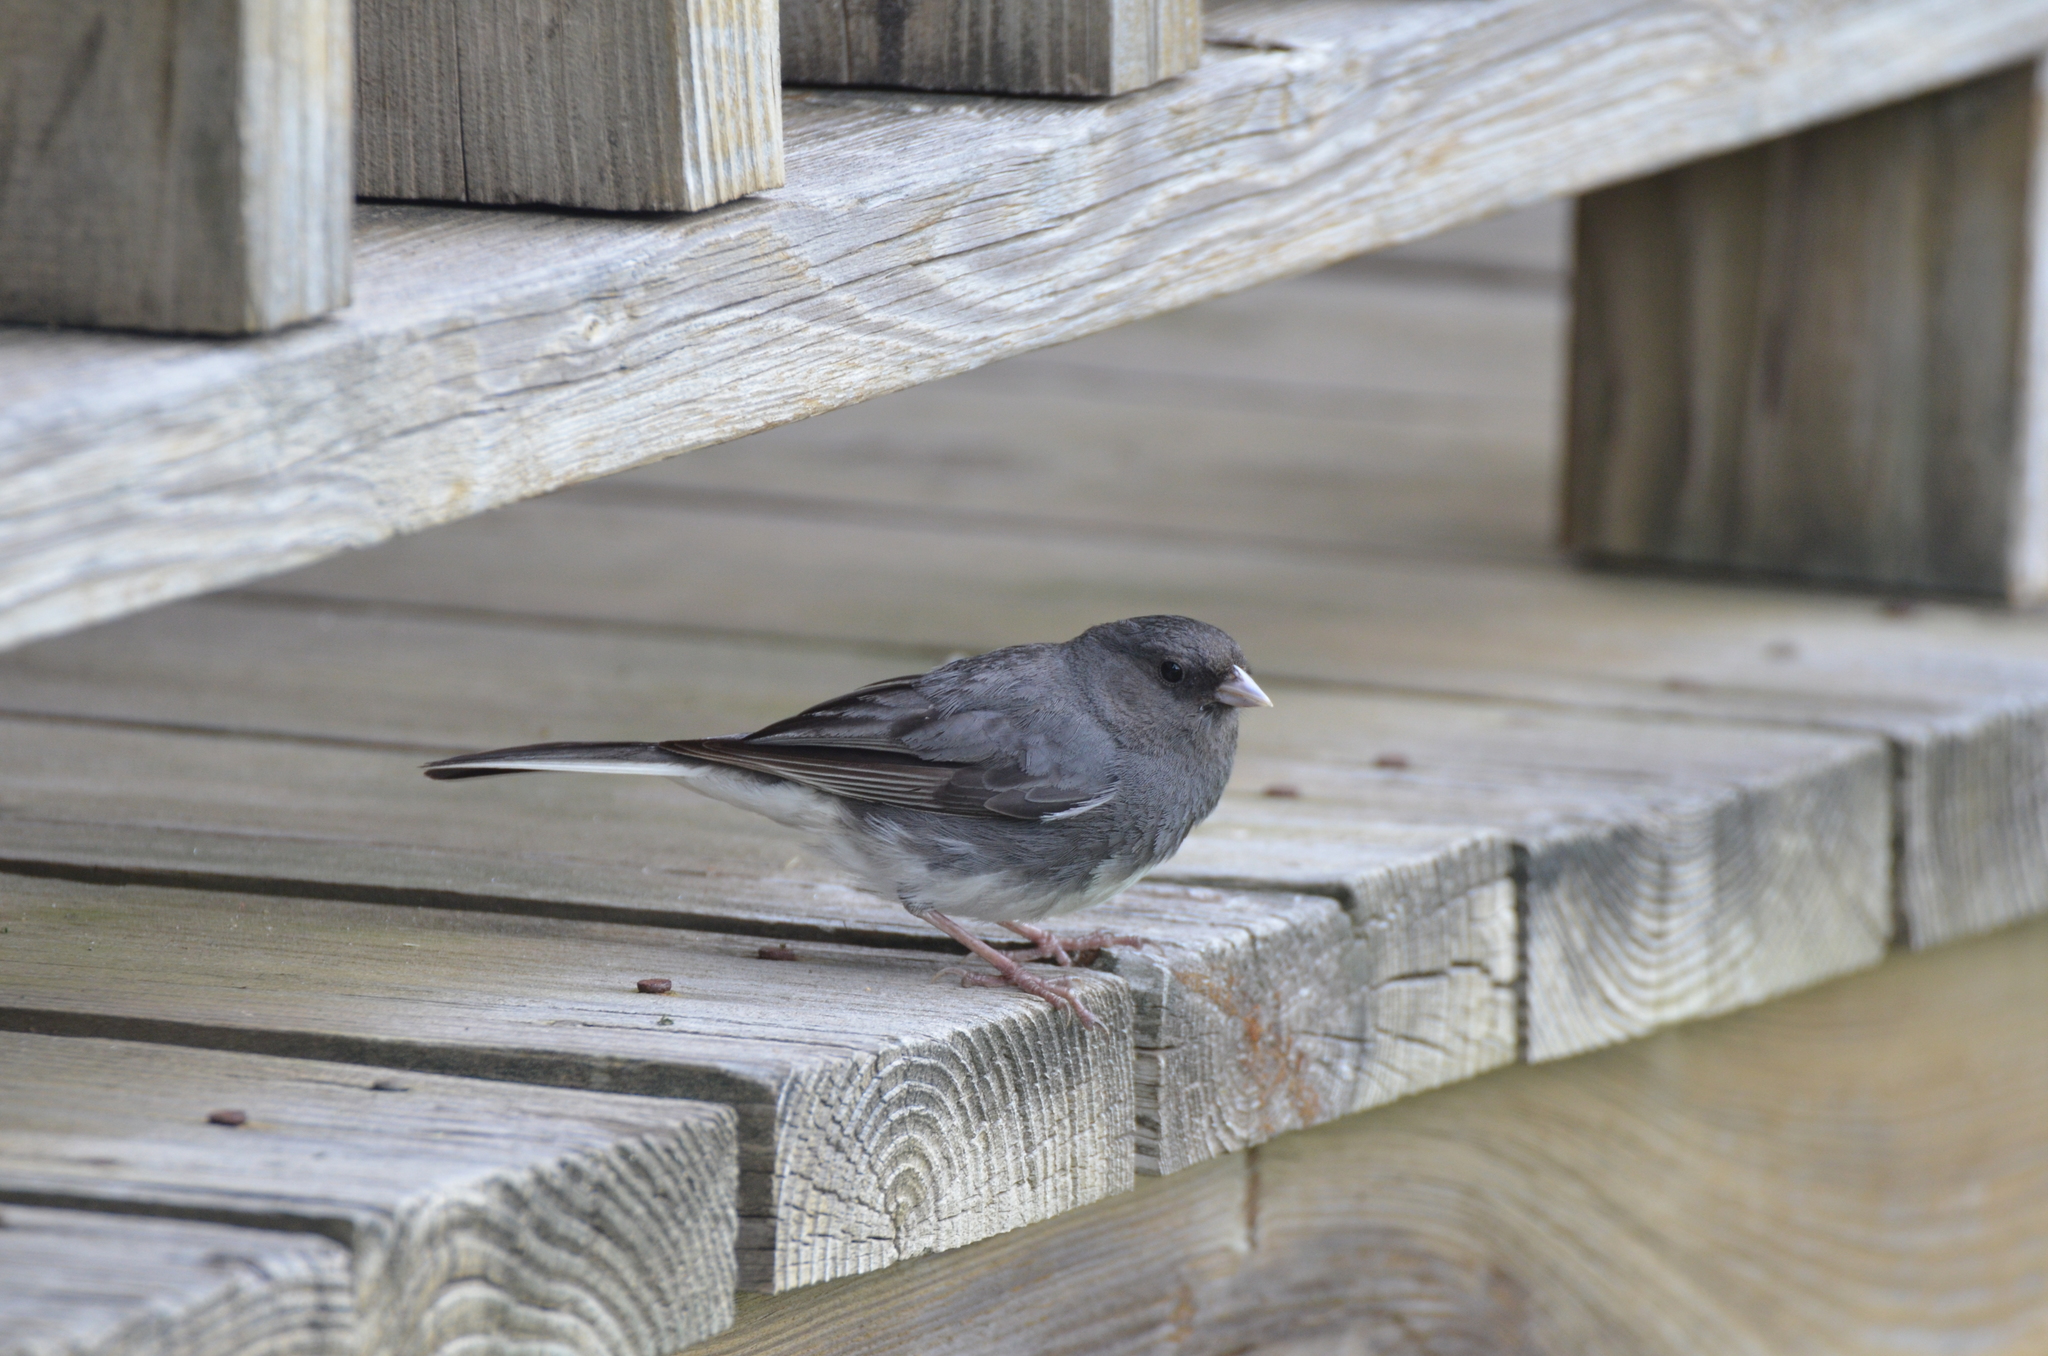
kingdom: Animalia
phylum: Chordata
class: Aves
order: Passeriformes
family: Passerellidae
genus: Junco
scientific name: Junco hyemalis
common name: Dark-eyed junco
